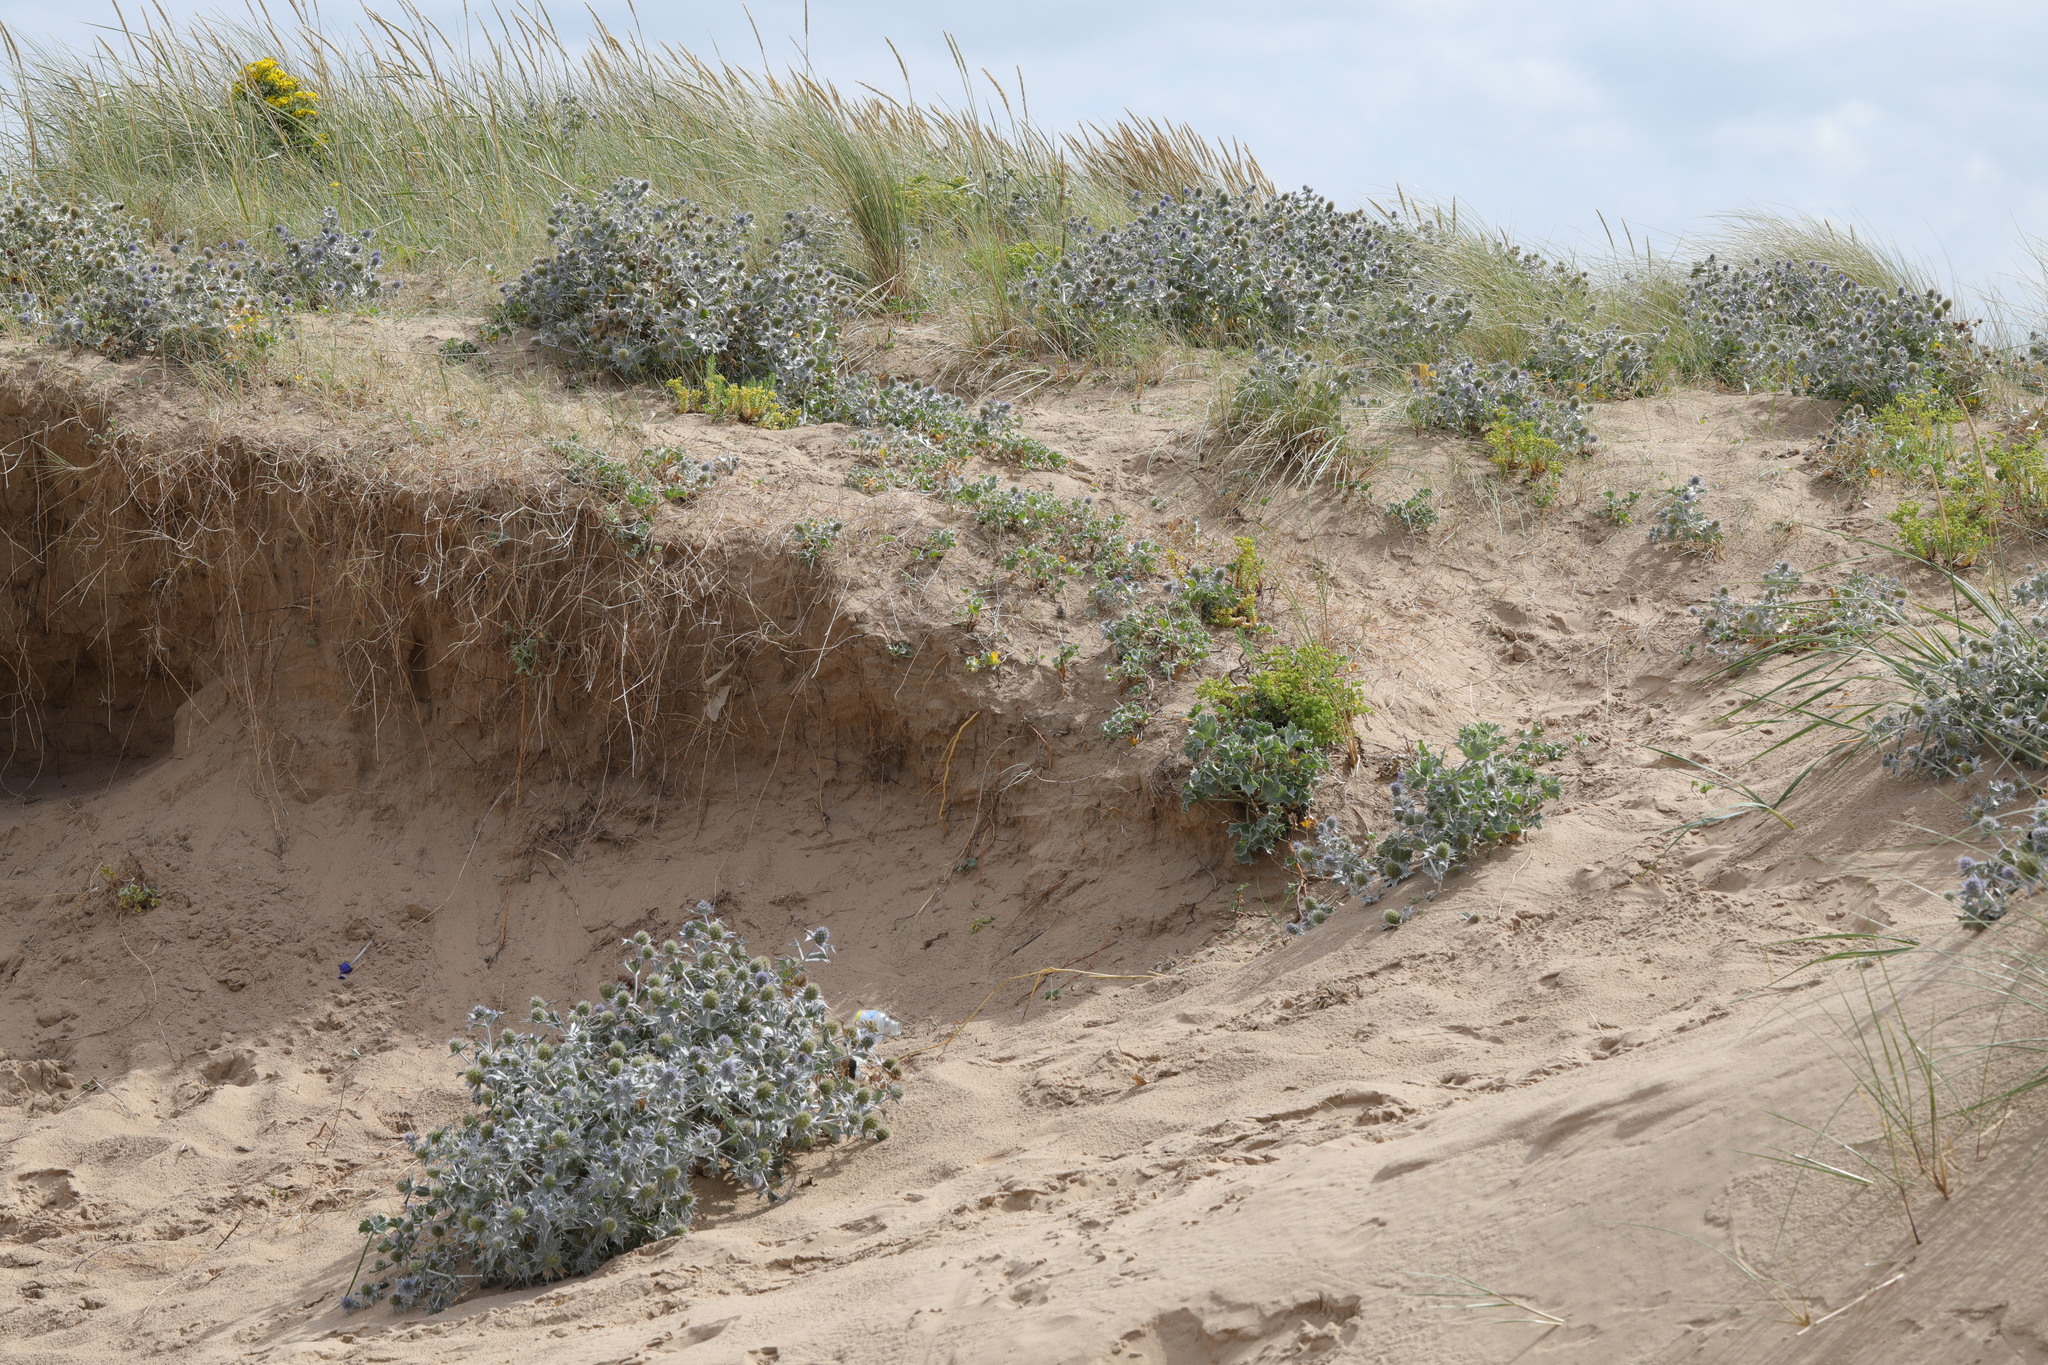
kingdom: Plantae
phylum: Tracheophyta
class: Magnoliopsida
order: Apiales
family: Apiaceae
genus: Eryngium
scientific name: Eryngium maritimum
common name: Sea-holly
